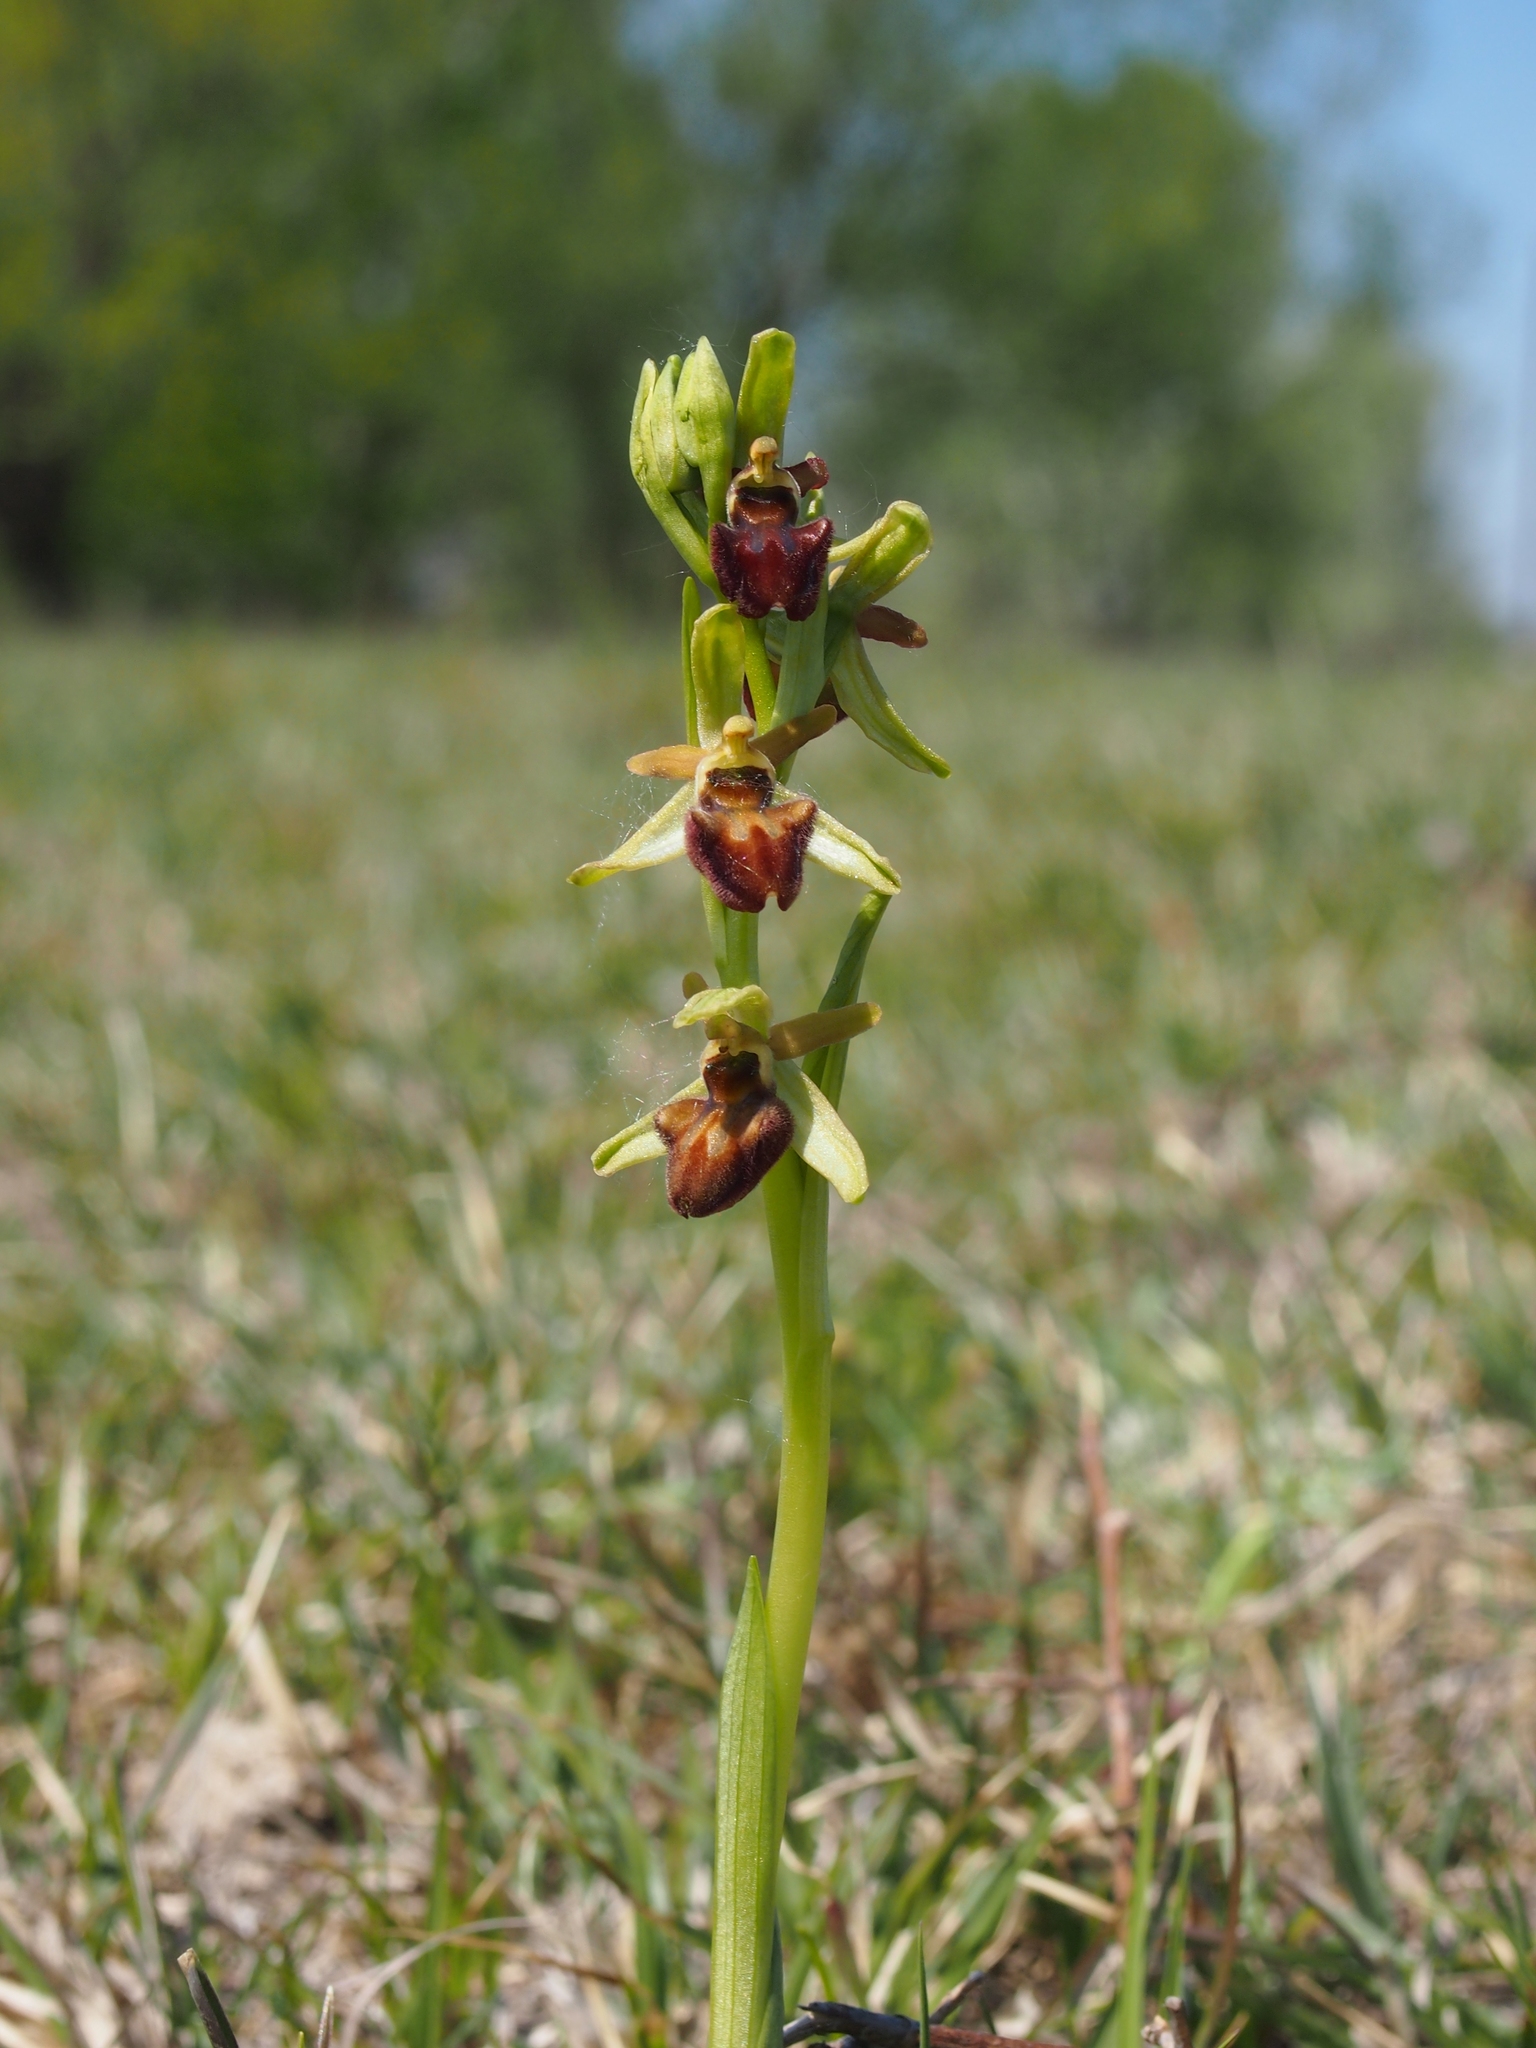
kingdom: Plantae
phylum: Tracheophyta
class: Liliopsida
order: Asparagales
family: Orchidaceae
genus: Ophrys
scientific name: Ophrys sphegodes
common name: Early spider-orchid
